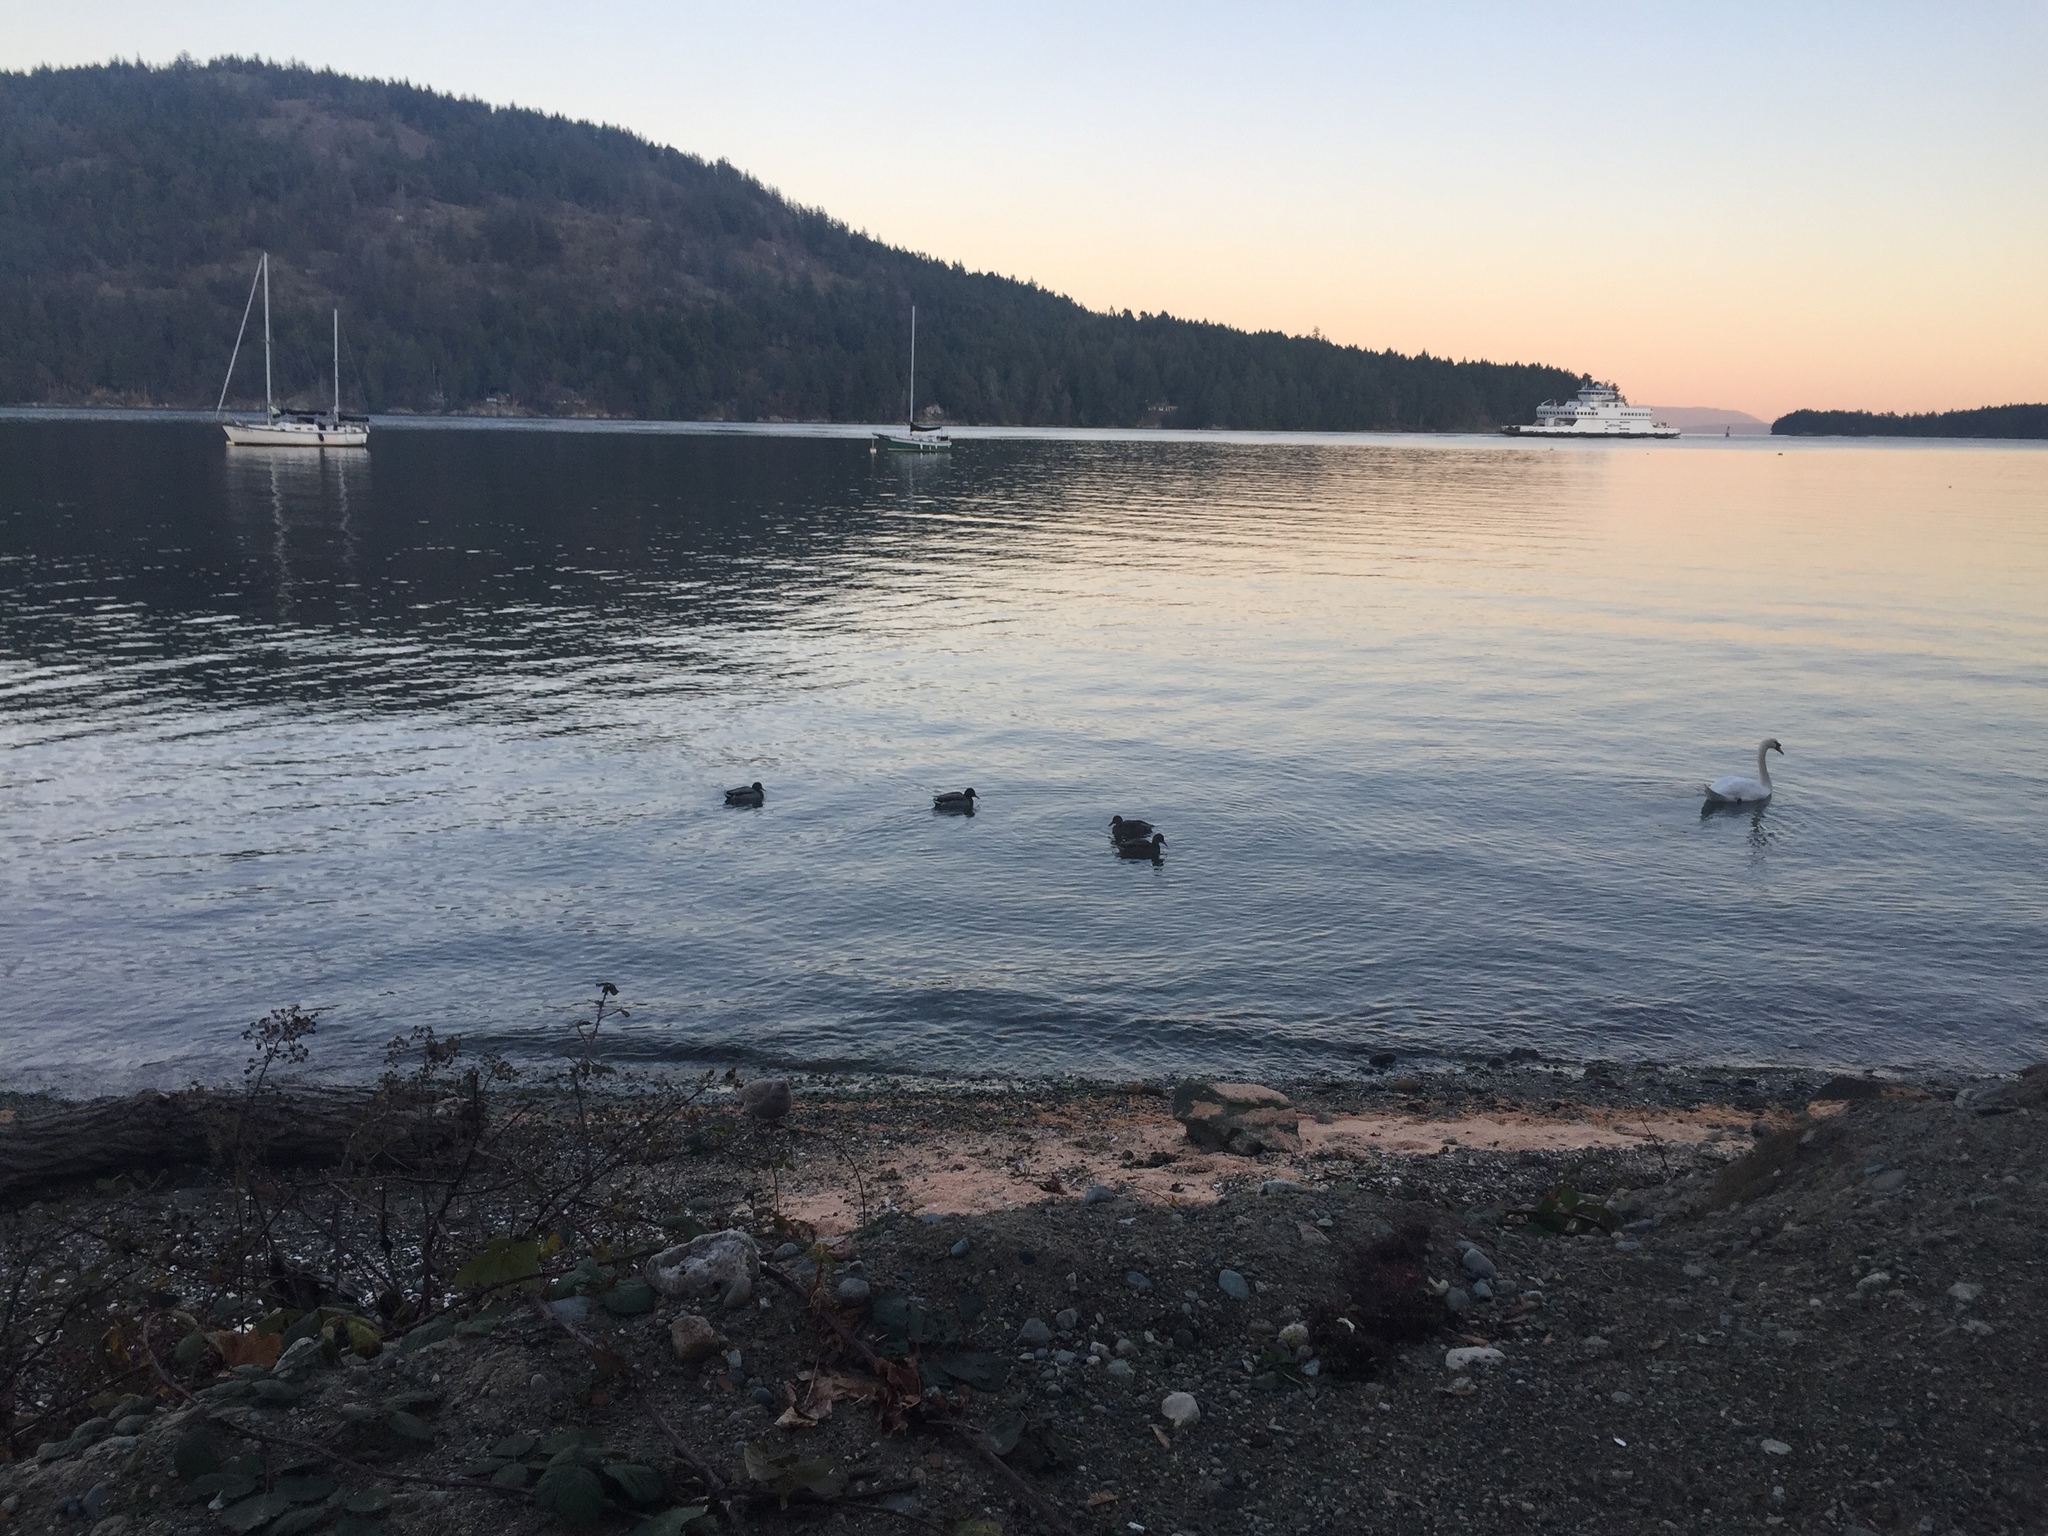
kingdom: Animalia
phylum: Chordata
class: Aves
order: Anseriformes
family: Anatidae
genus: Anas
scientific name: Anas platyrhynchos
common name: Mallard
